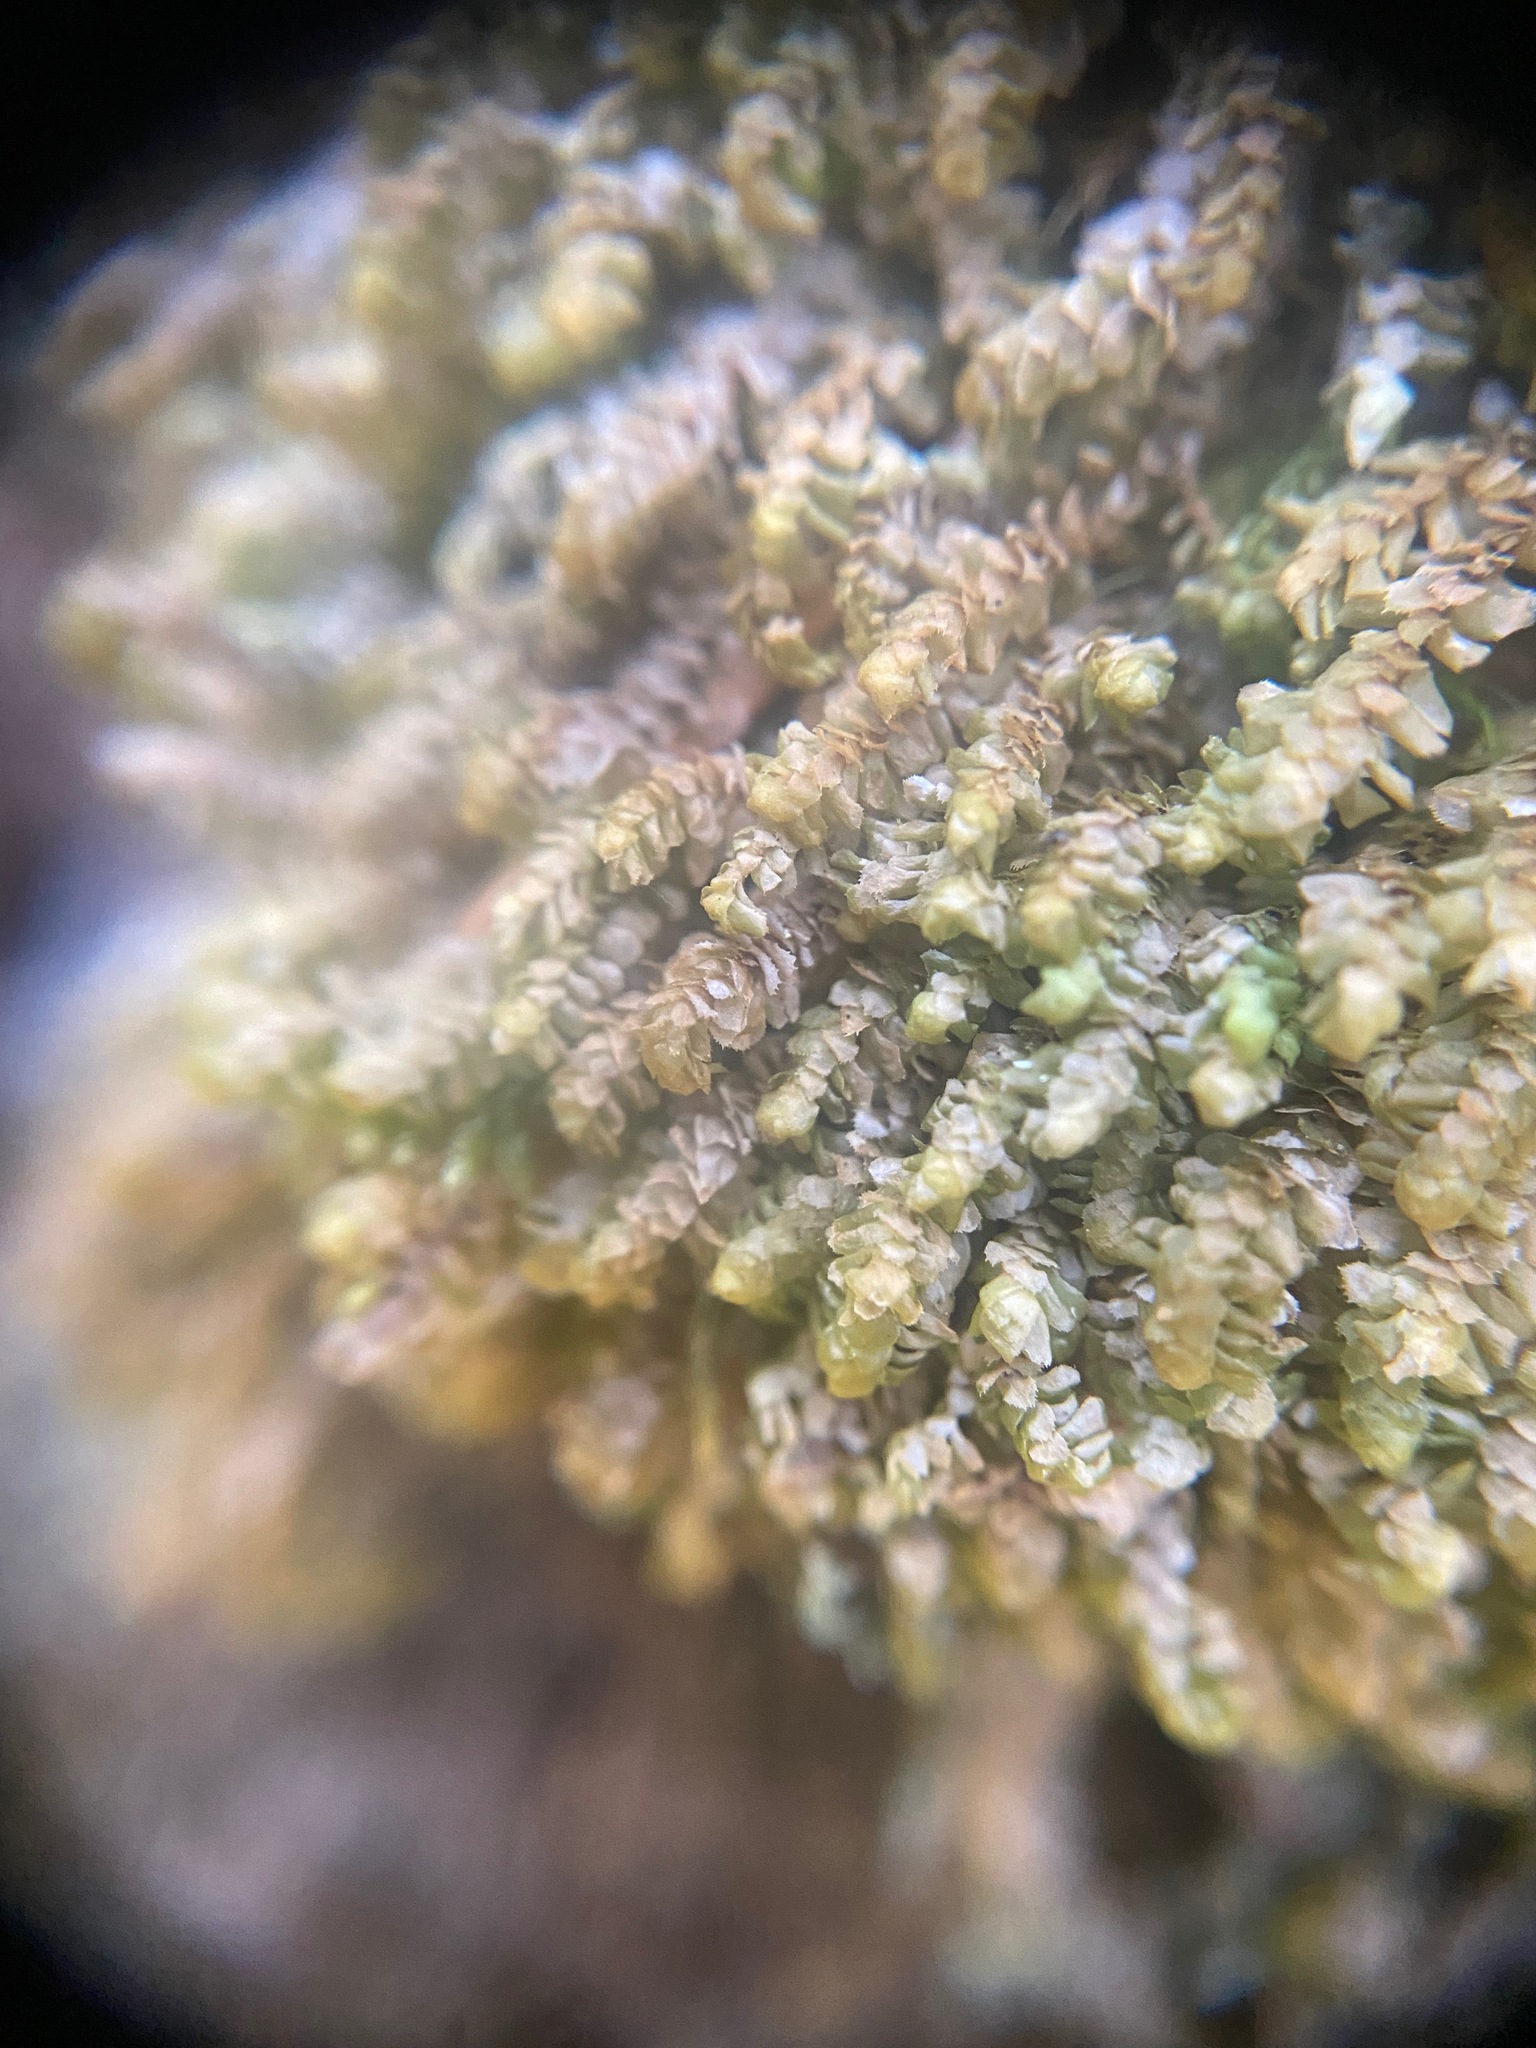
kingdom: Plantae
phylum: Marchantiophyta
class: Jungermanniopsida
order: Jungermanniales
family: Scapaniaceae
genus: Scapania
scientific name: Scapania bolanderi
